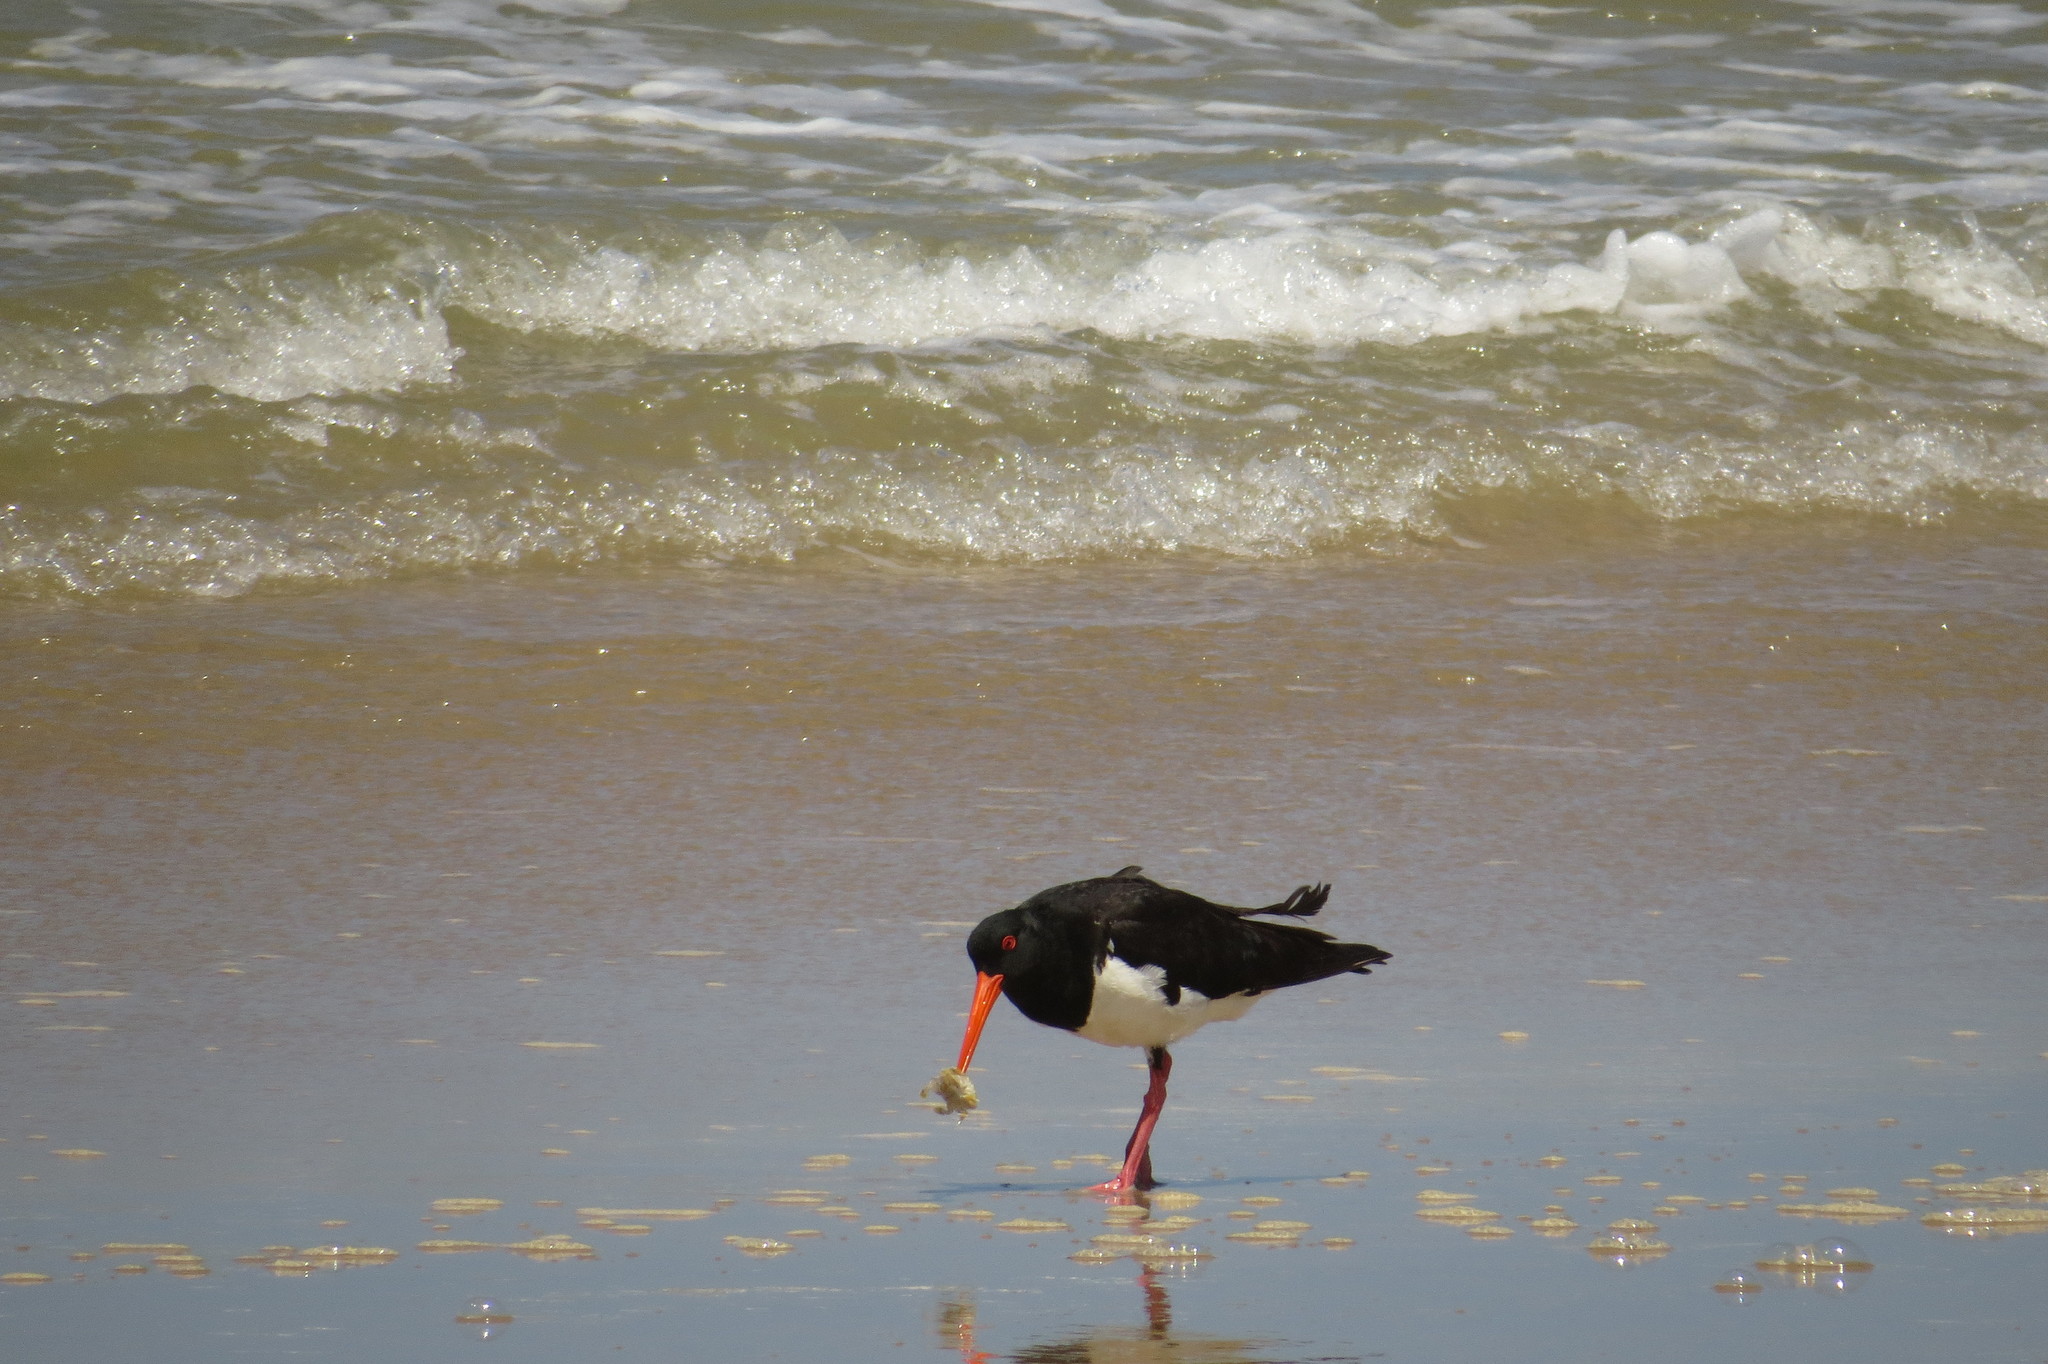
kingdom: Animalia
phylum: Chordata
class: Aves
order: Charadriiformes
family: Haematopodidae
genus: Haematopus
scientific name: Haematopus longirostris
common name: Pied oystercatcher
